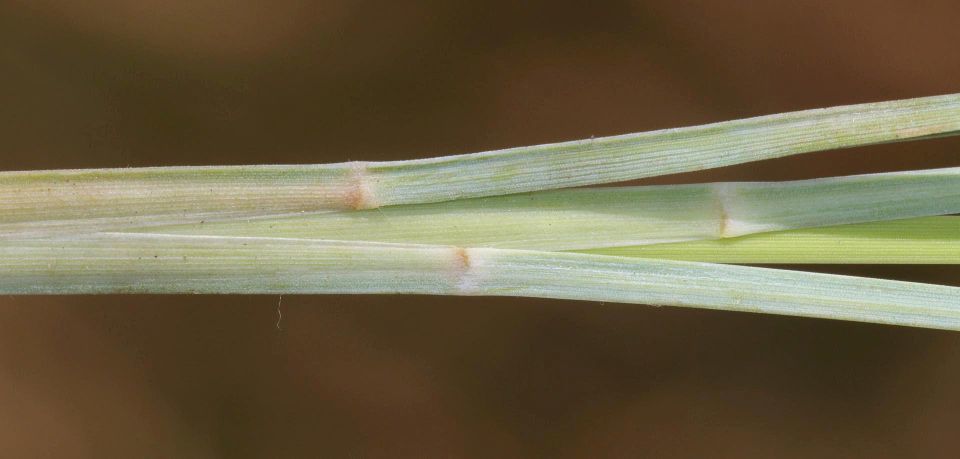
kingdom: Plantae
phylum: Tracheophyta
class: Liliopsida
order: Poales
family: Poaceae
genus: Heteropogon
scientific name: Heteropogon contortus
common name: Tanglehead
